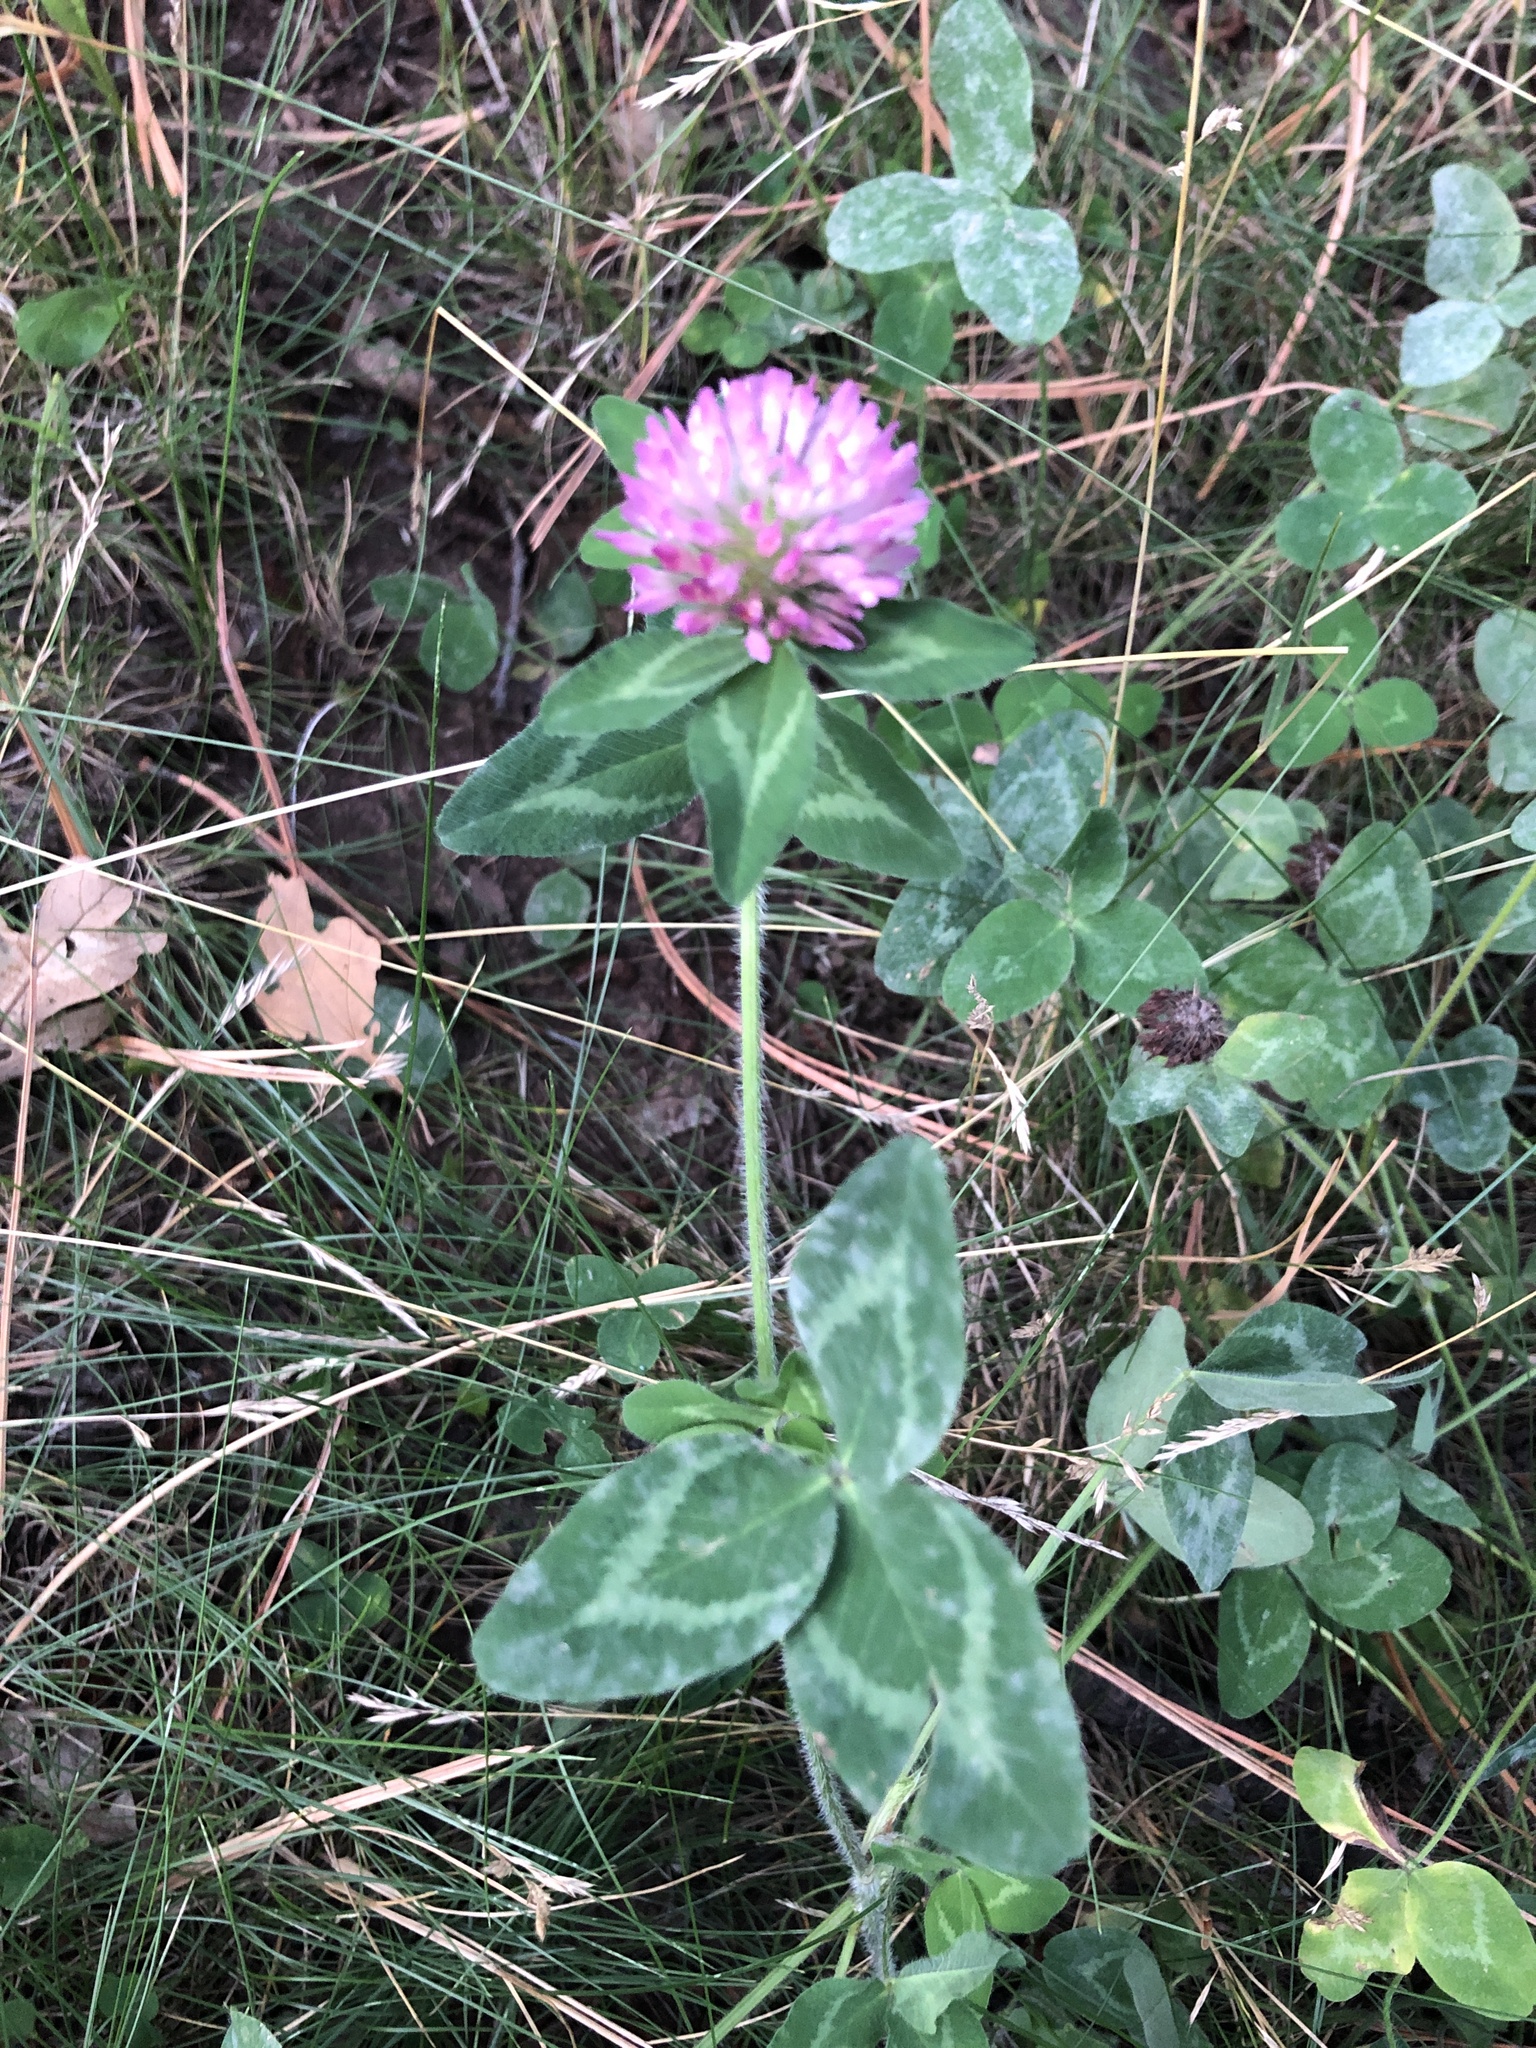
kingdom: Plantae
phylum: Tracheophyta
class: Magnoliopsida
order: Fabales
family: Fabaceae
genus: Trifolium
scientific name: Trifolium pratense
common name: Red clover
